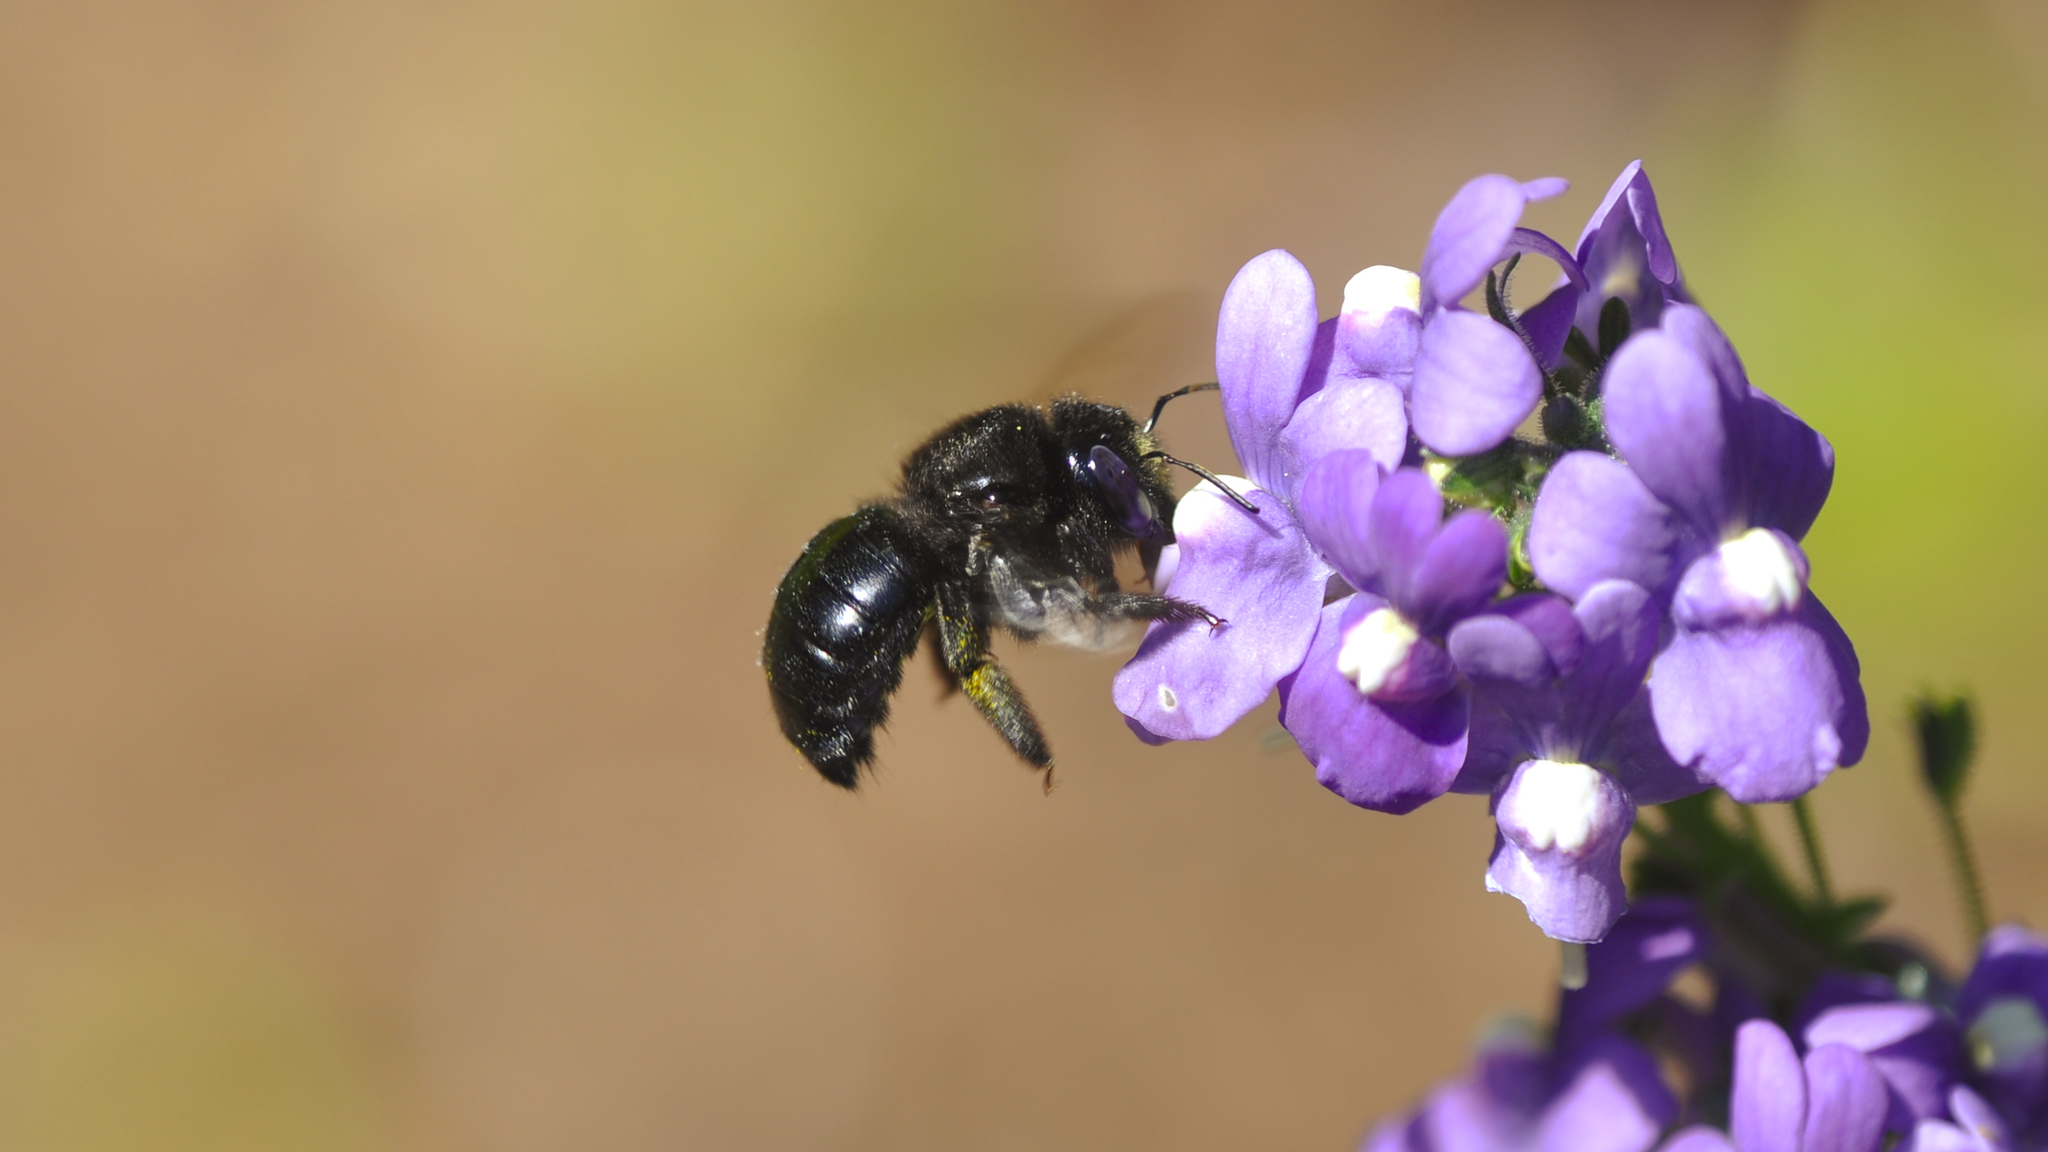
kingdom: Animalia
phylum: Arthropoda
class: Insecta
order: Hymenoptera
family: Apidae
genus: Xylocopa
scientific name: Xylocopa tabaniformis
